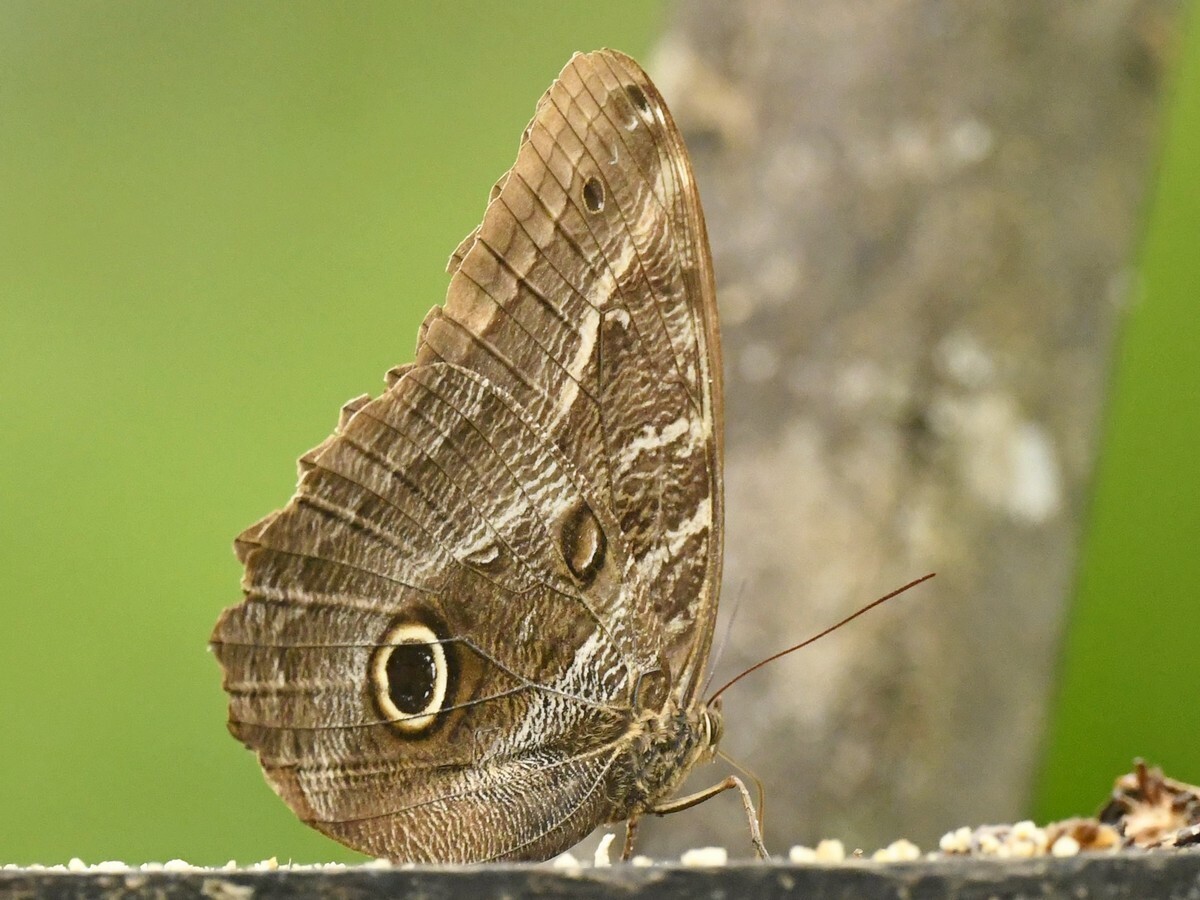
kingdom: Animalia
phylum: Arthropoda
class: Insecta
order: Lepidoptera
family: Nymphalidae
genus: Caligo
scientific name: Caligo illioneus
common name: Dusky owl-butterfly
